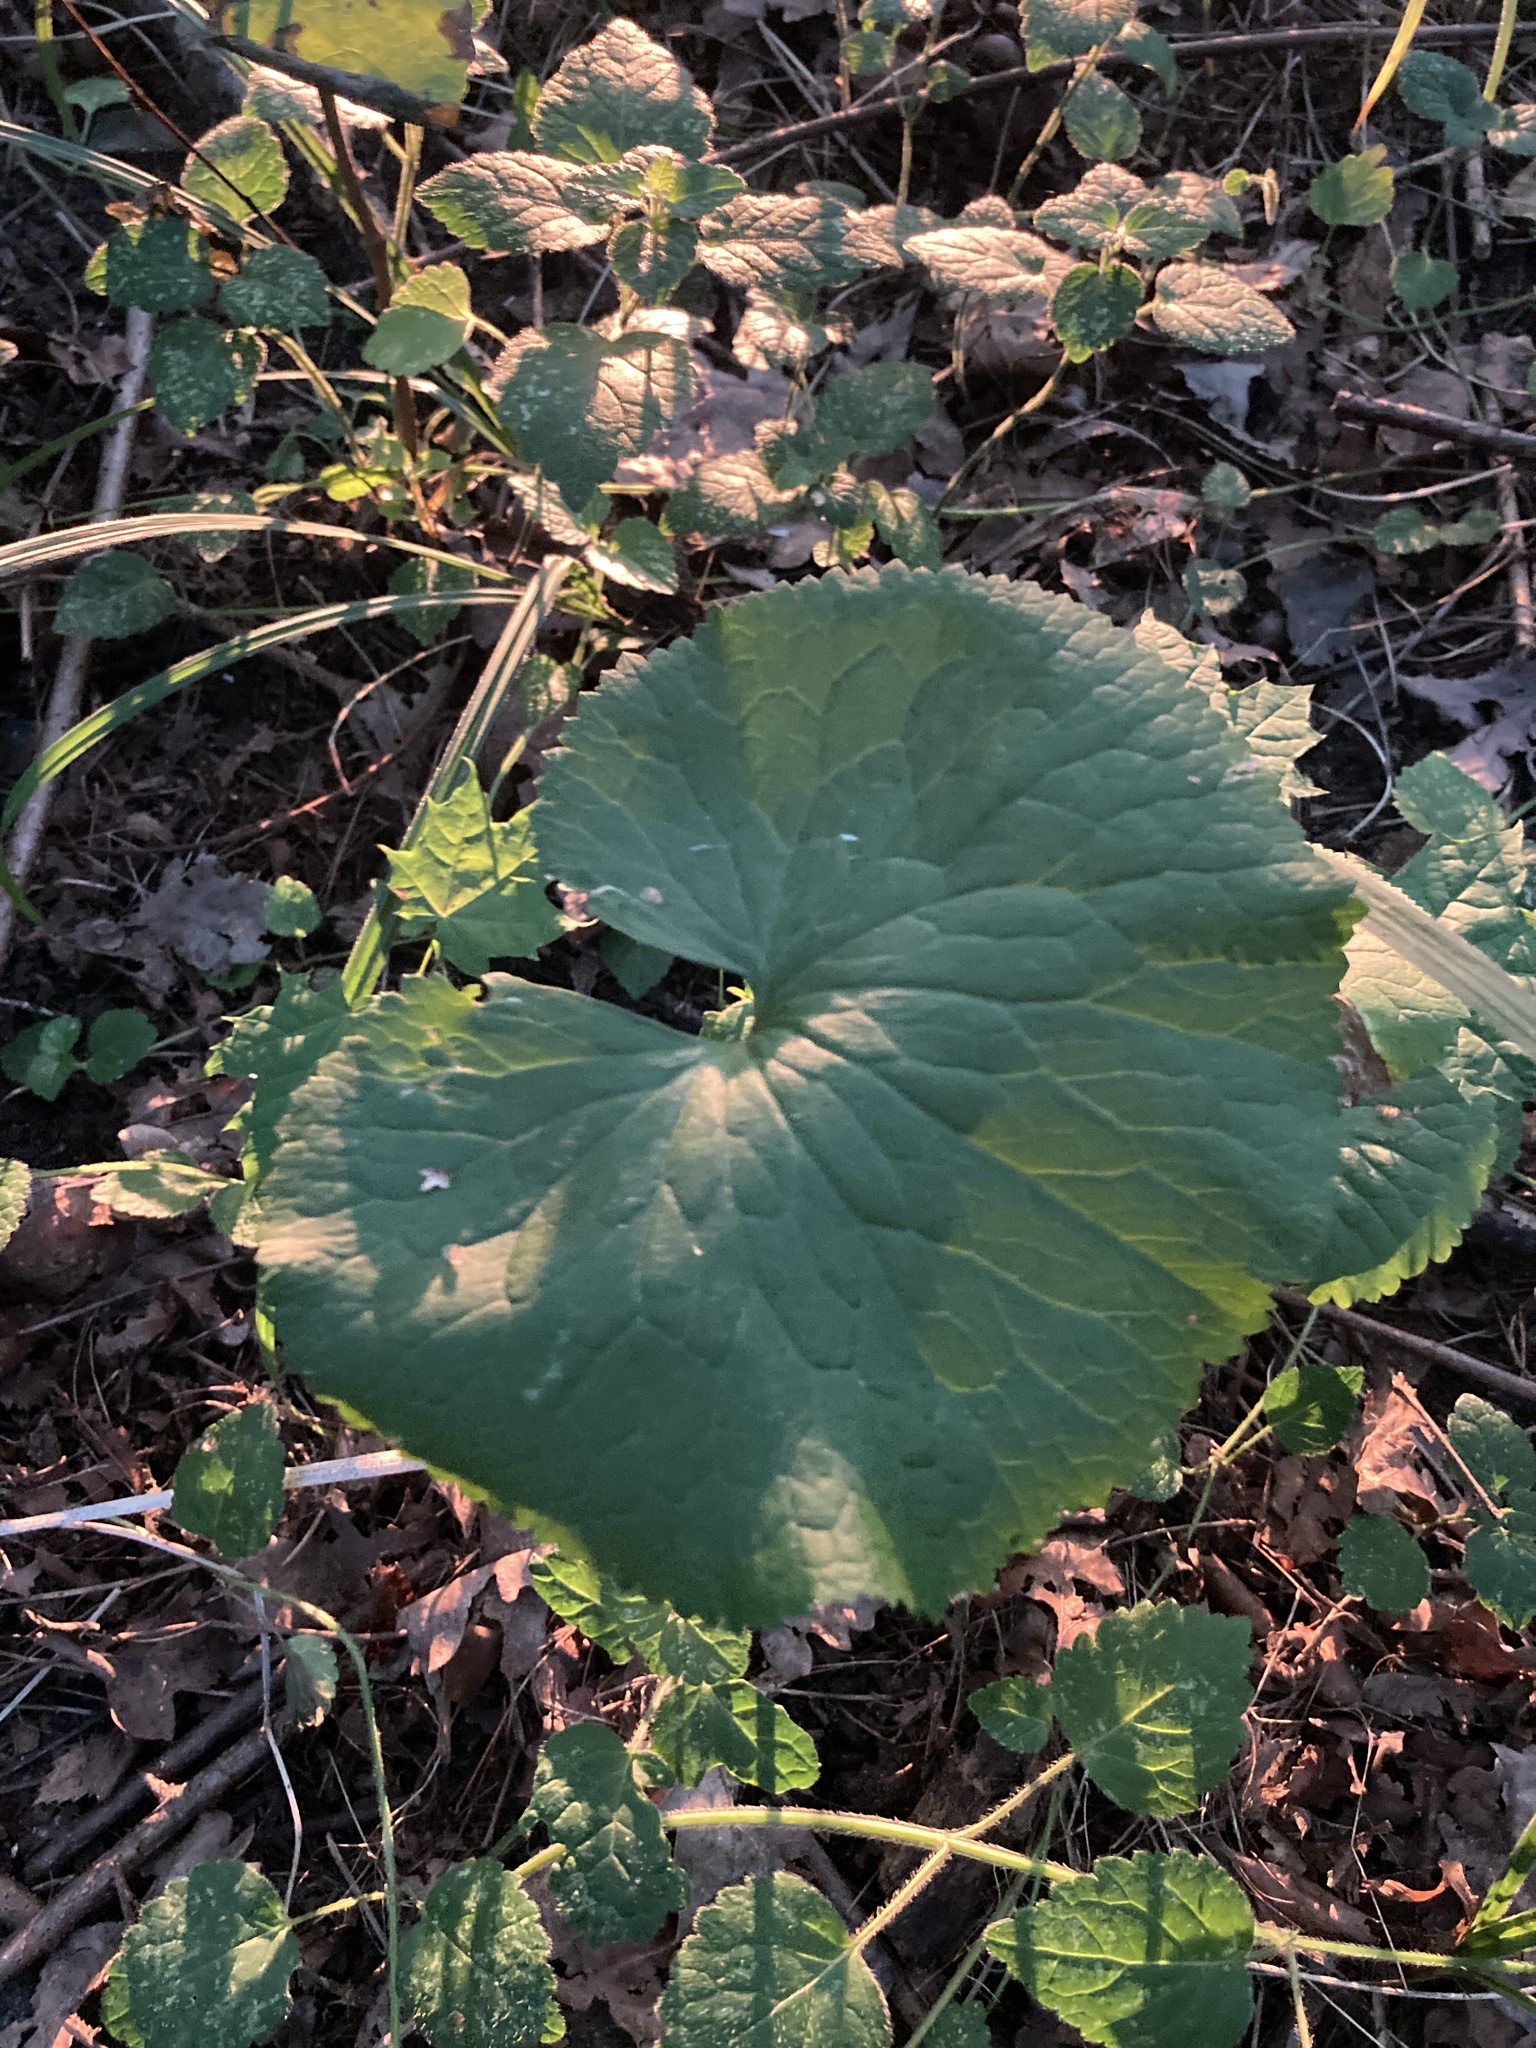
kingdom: Plantae
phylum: Tracheophyta
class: Magnoliopsida
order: Ranunculales
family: Ranunculaceae
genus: Ranunculus
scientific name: Ranunculus cassubicus
